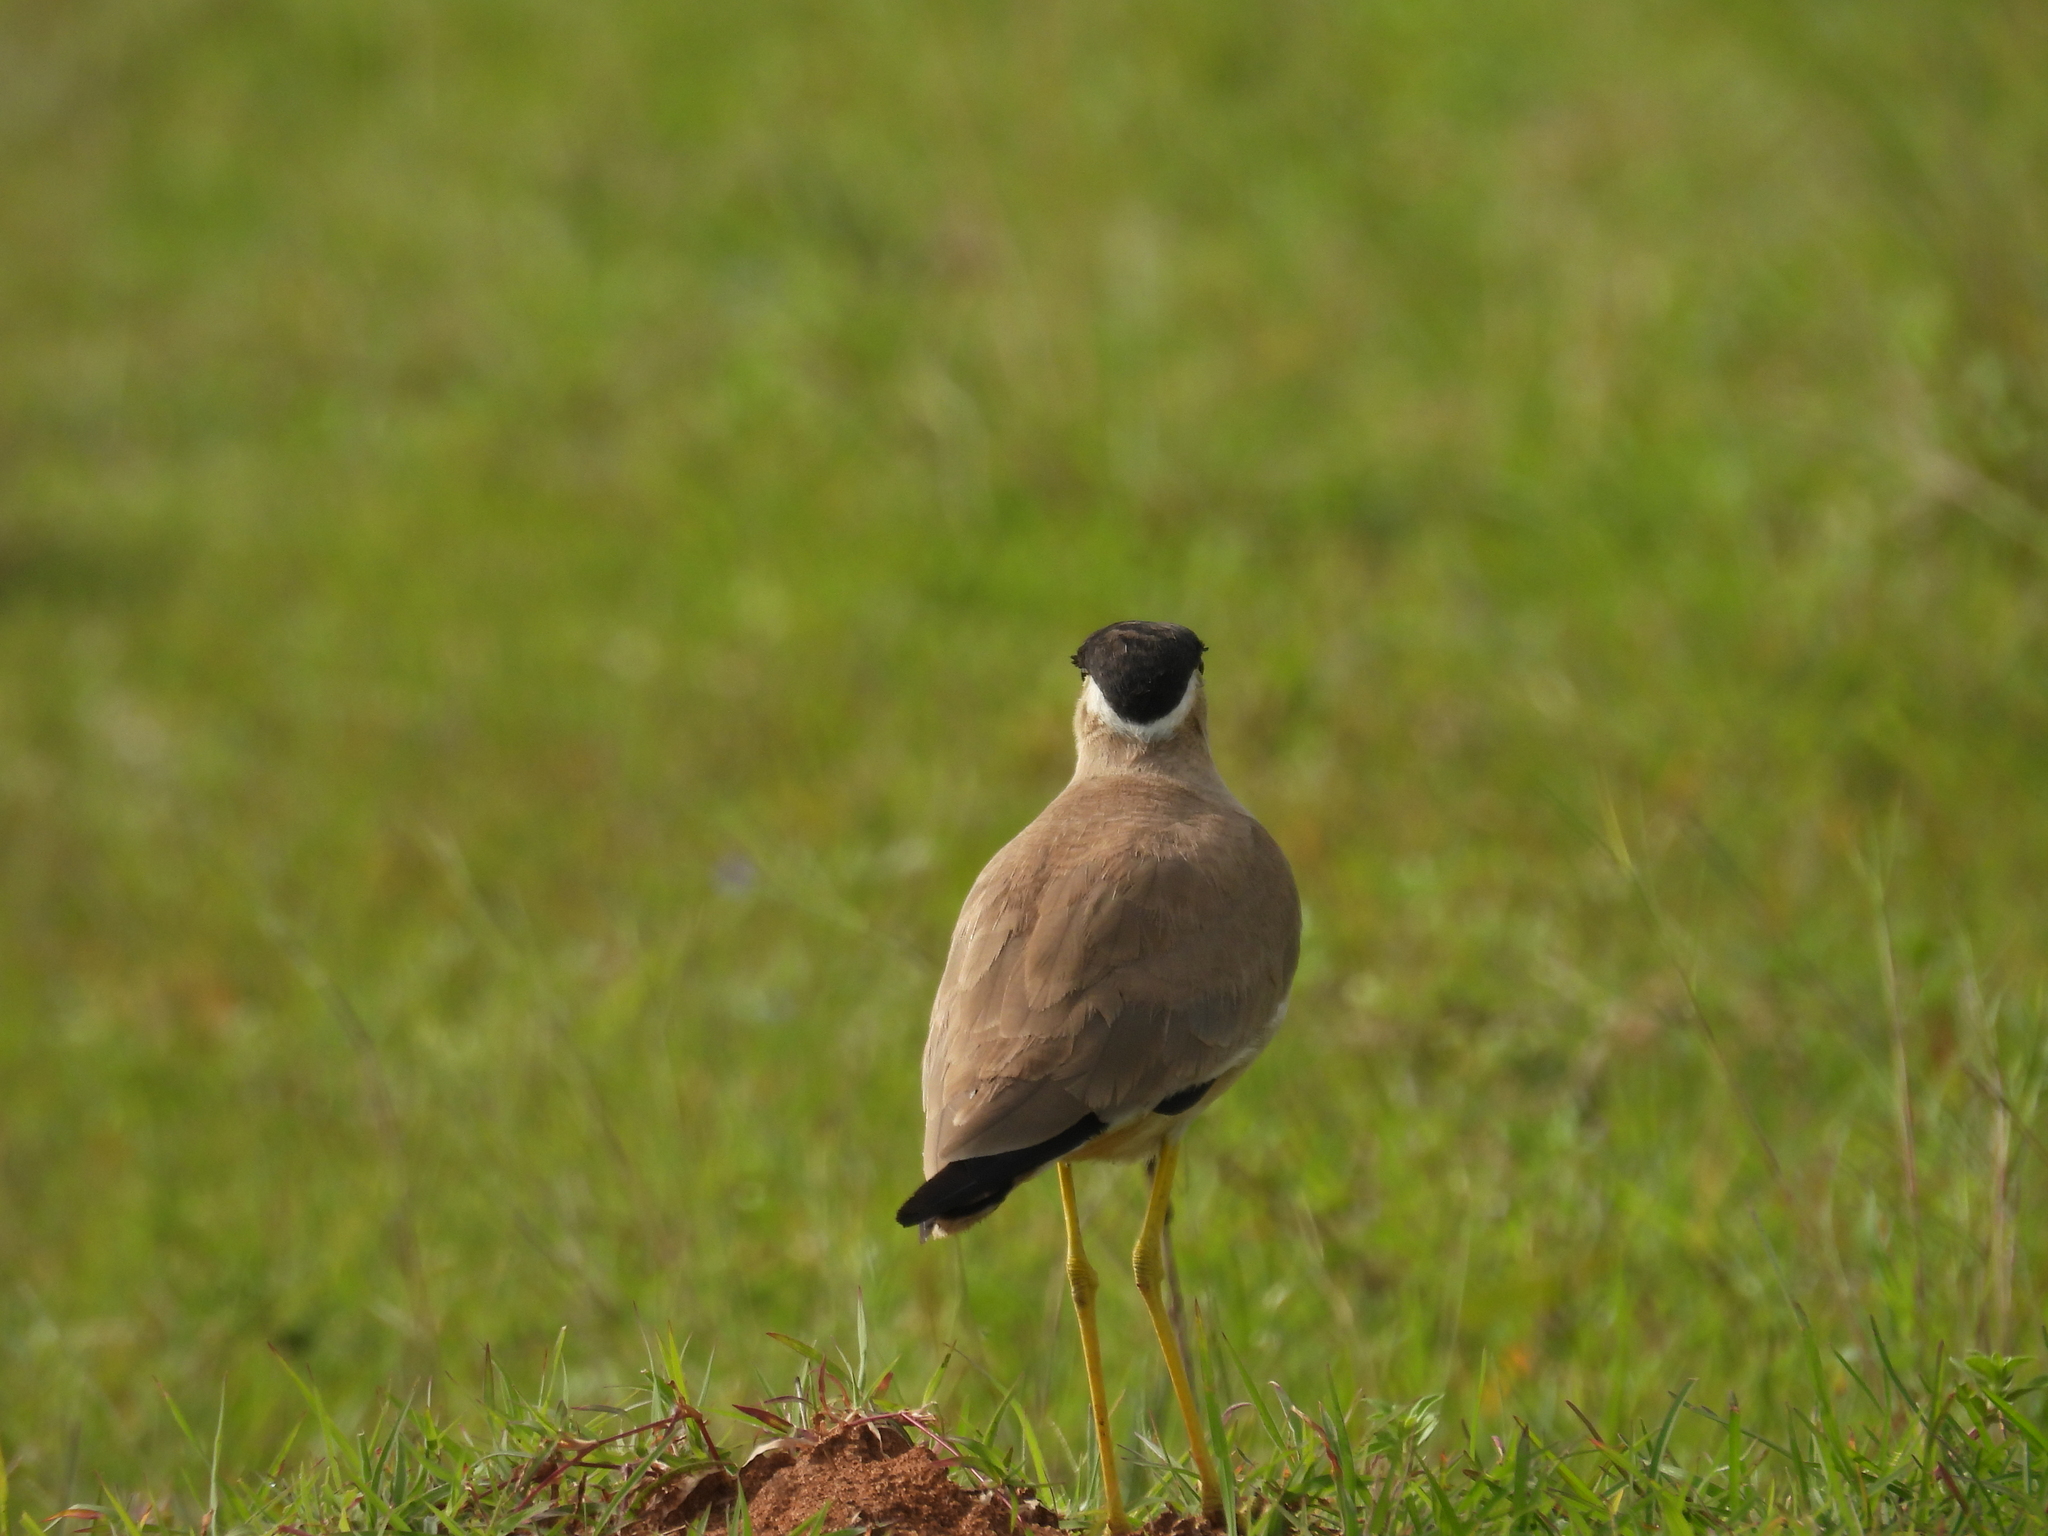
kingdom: Animalia
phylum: Chordata
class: Aves
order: Charadriiformes
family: Charadriidae
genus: Vanellus
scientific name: Vanellus malabaricus
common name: Yellow-wattled lapwing
